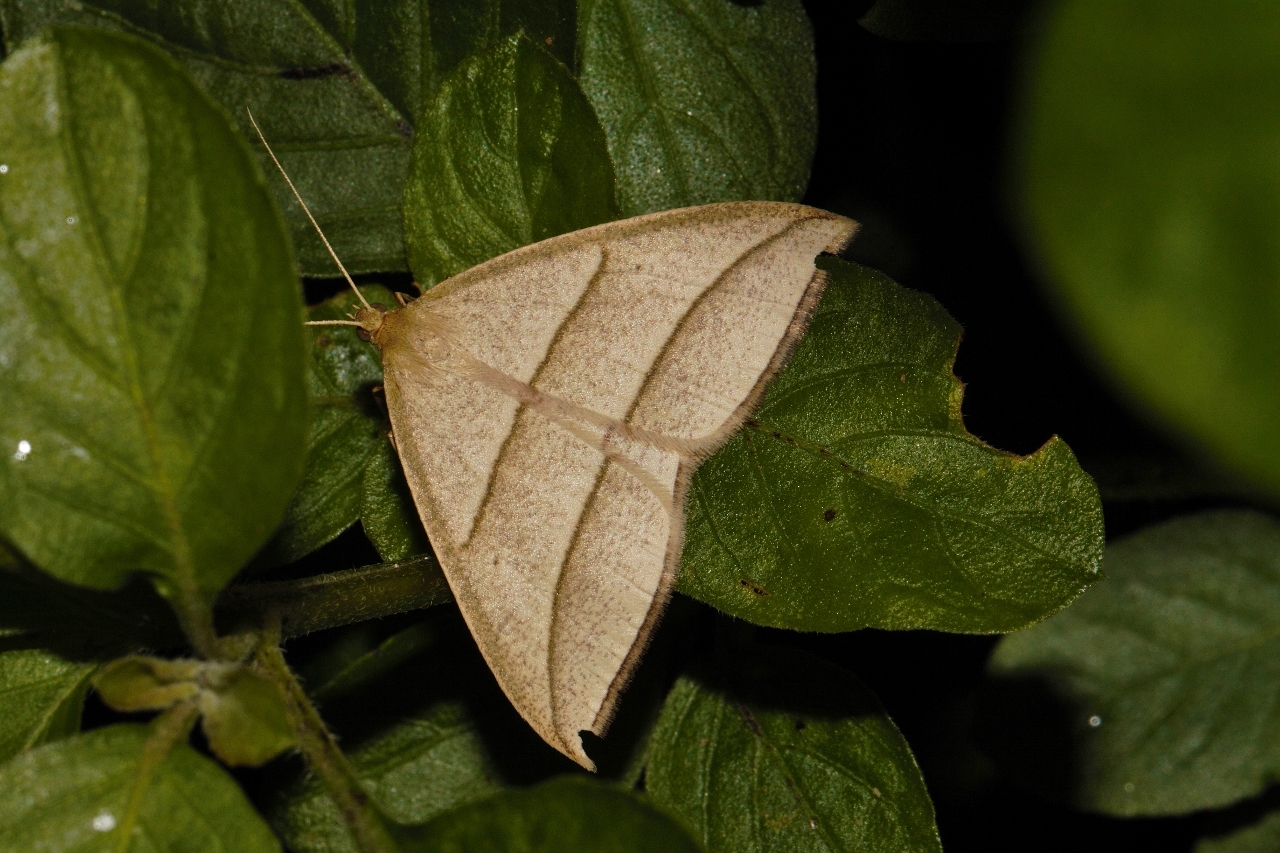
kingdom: Animalia
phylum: Arthropoda
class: Insecta
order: Lepidoptera
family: Geometridae
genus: Afrophyla
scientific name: Afrophyla vethi
